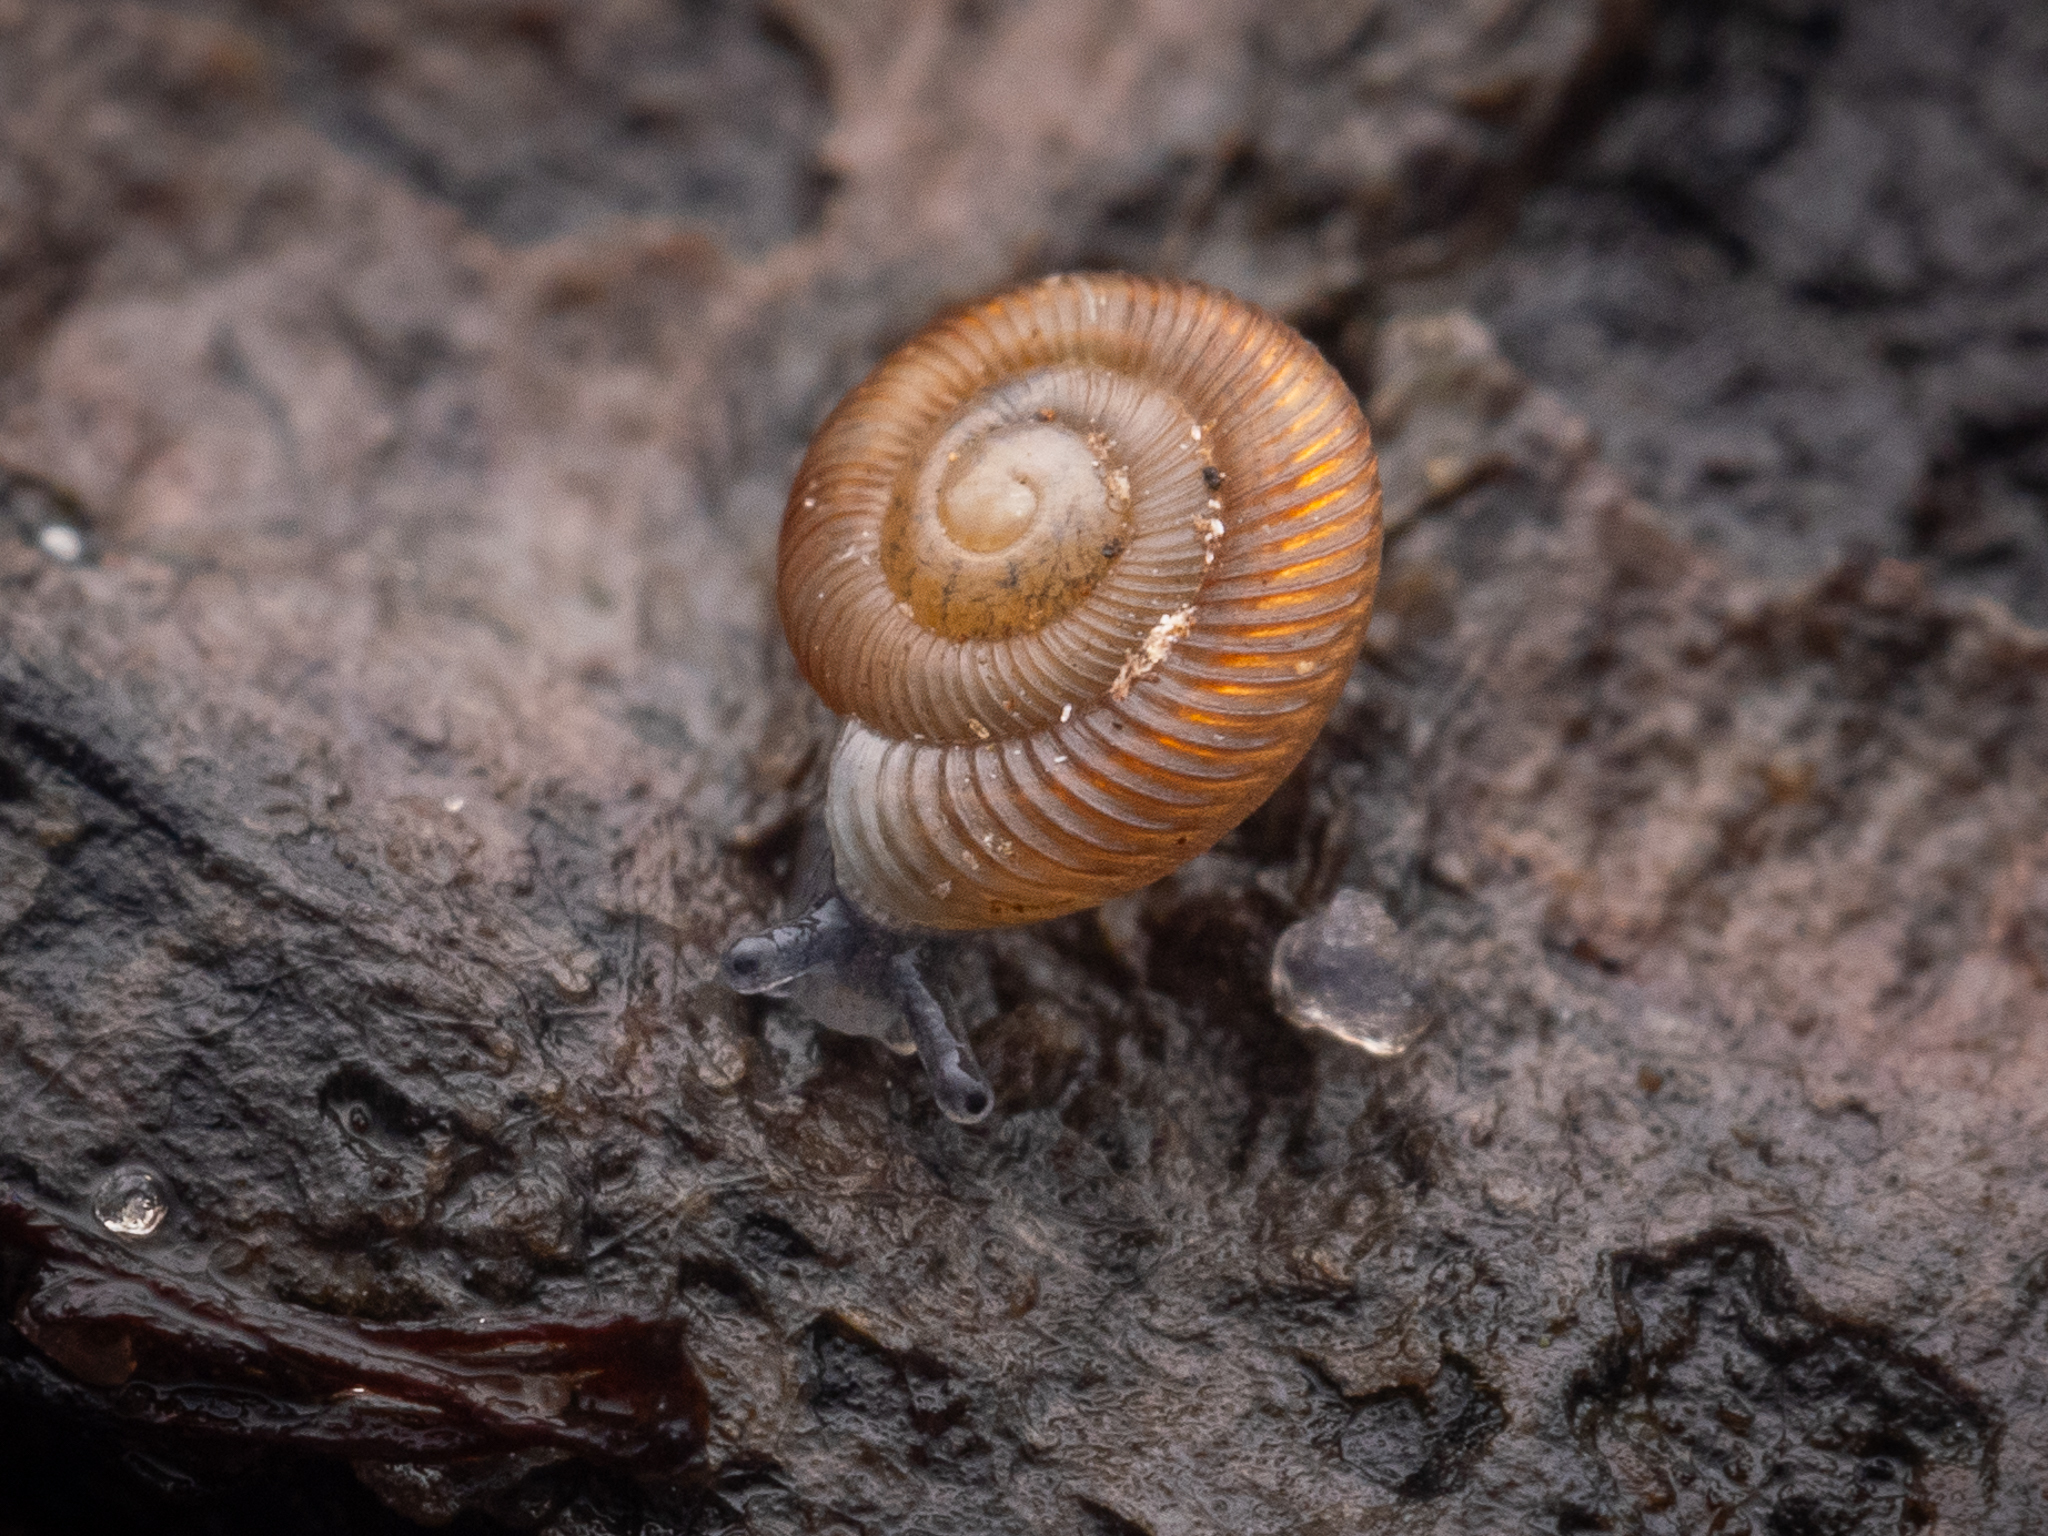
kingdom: Animalia
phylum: Mollusca
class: Gastropoda
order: Stylommatophora
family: Discidae
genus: Discus
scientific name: Discus rotundatus
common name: Rounded snail
